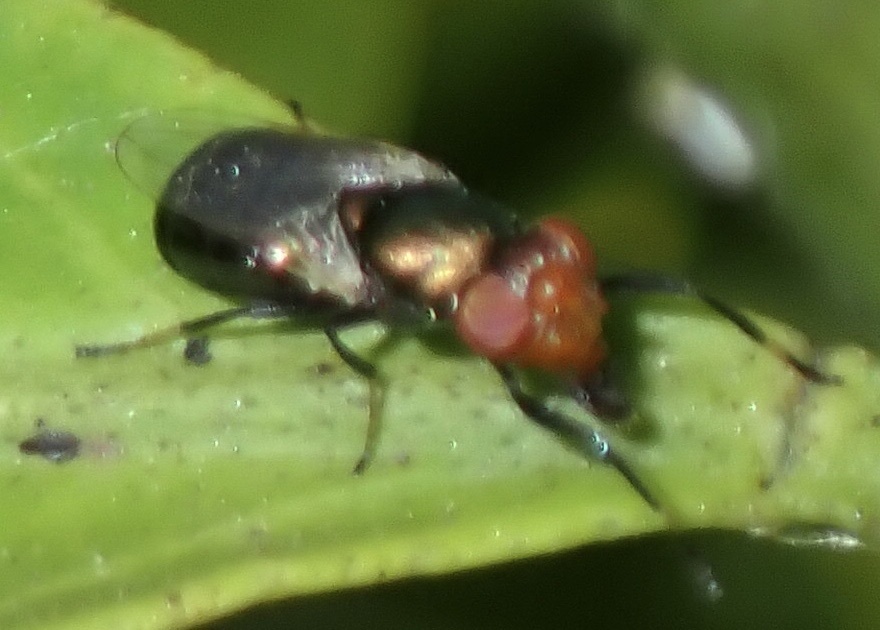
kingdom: Animalia
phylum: Arthropoda
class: Insecta
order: Diptera
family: Ulidiidae
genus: Physiphora
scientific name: Physiphora alceae
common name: Picture-winged fly
